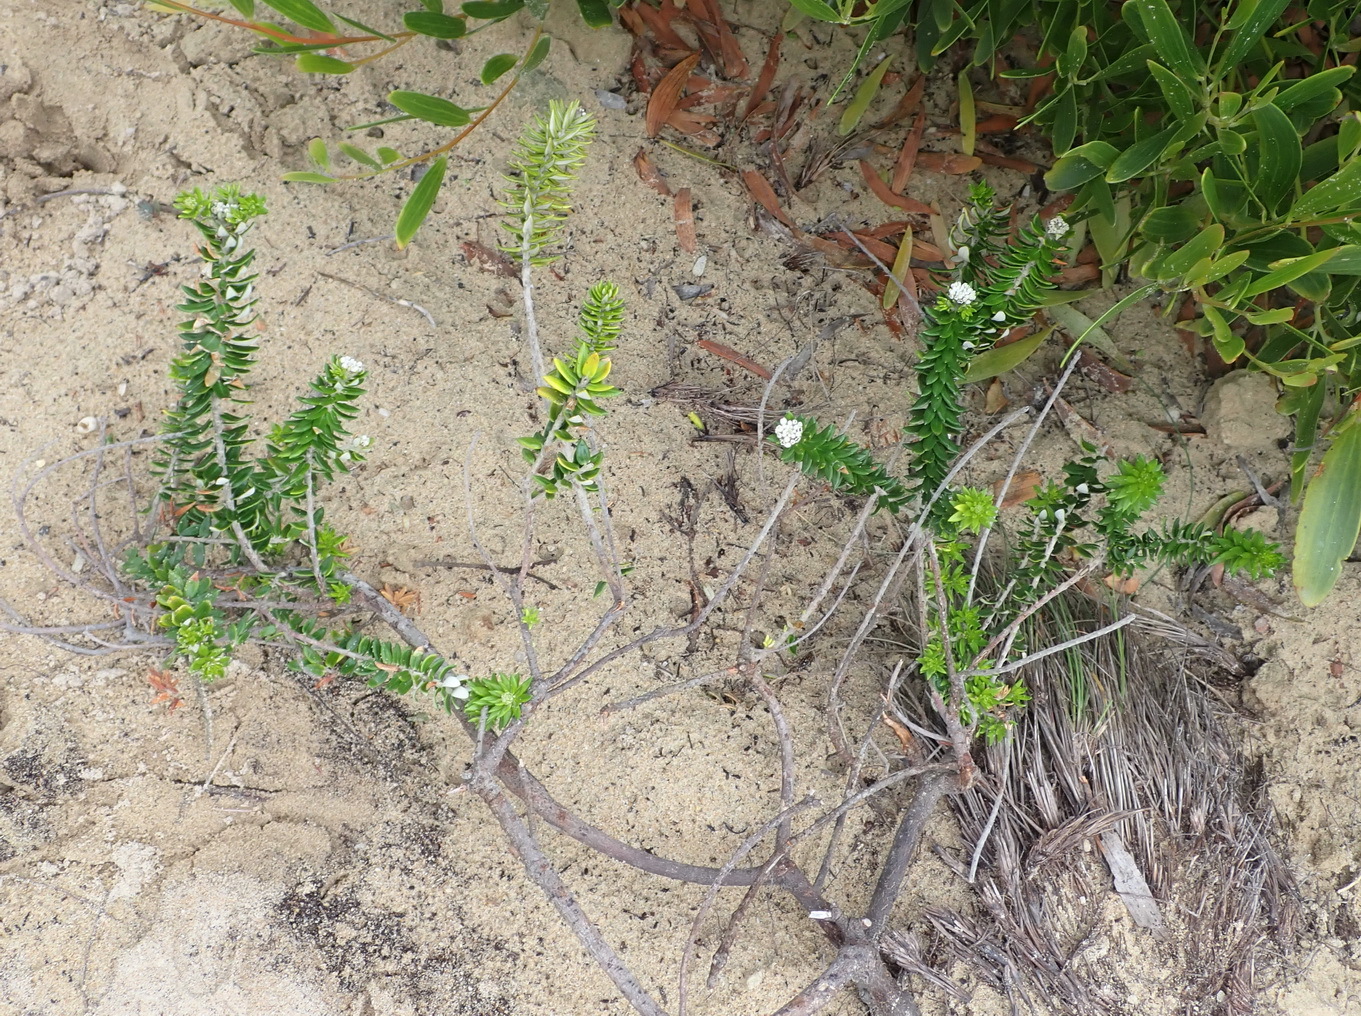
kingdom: Plantae
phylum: Tracheophyta
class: Magnoliopsida
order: Rosales
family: Rhamnaceae
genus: Phylica
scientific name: Phylica litoralis
